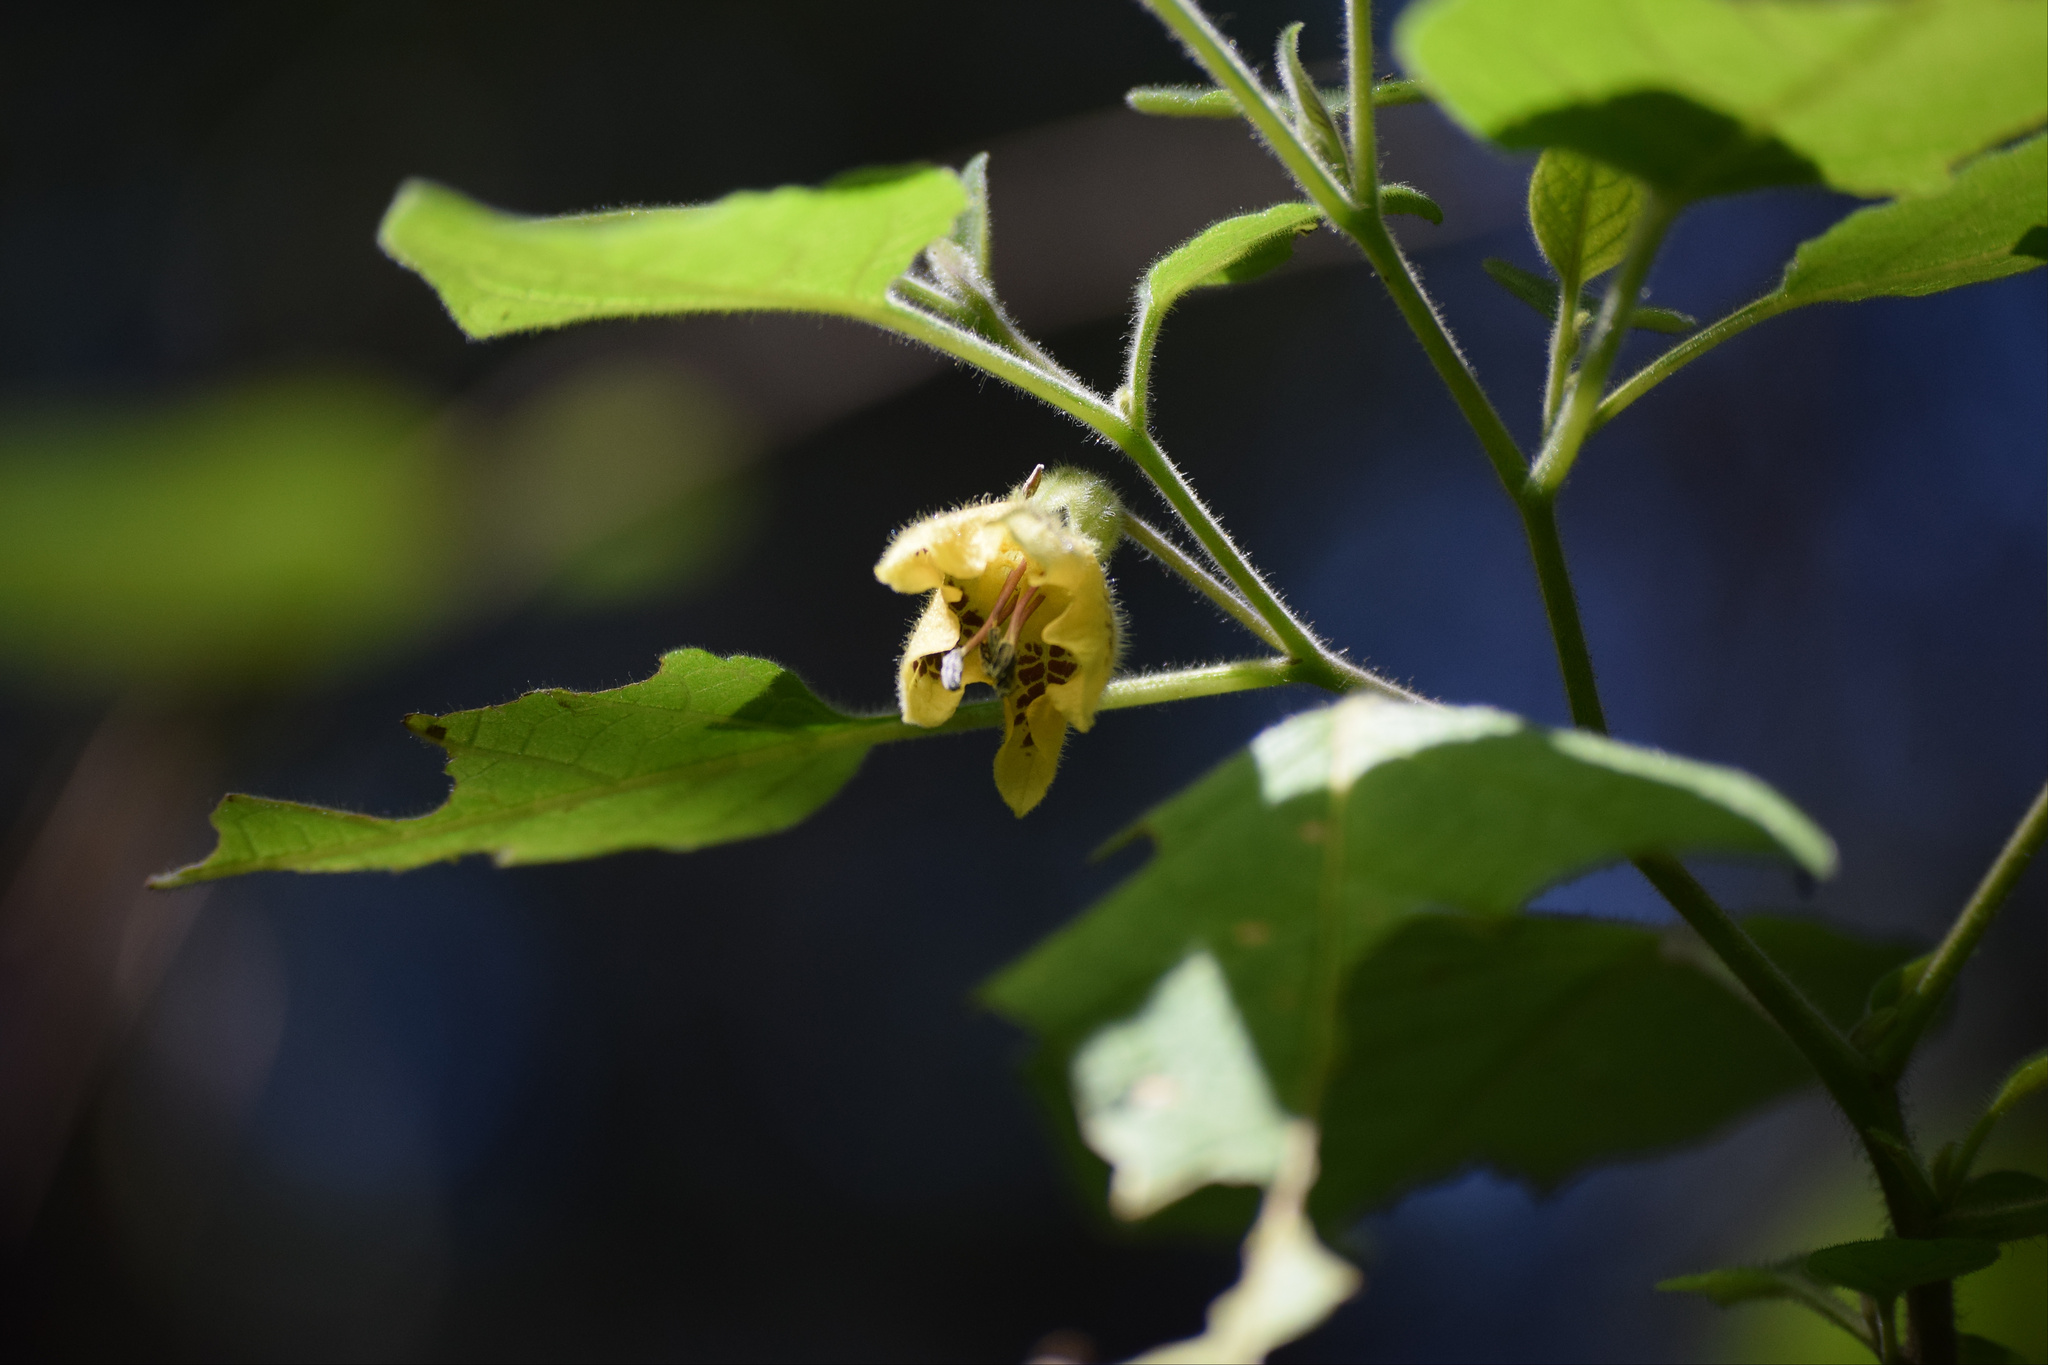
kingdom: Plantae
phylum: Tracheophyta
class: Magnoliopsida
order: Solanales
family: Solanaceae
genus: Physalis
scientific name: Physalis coztomatl
